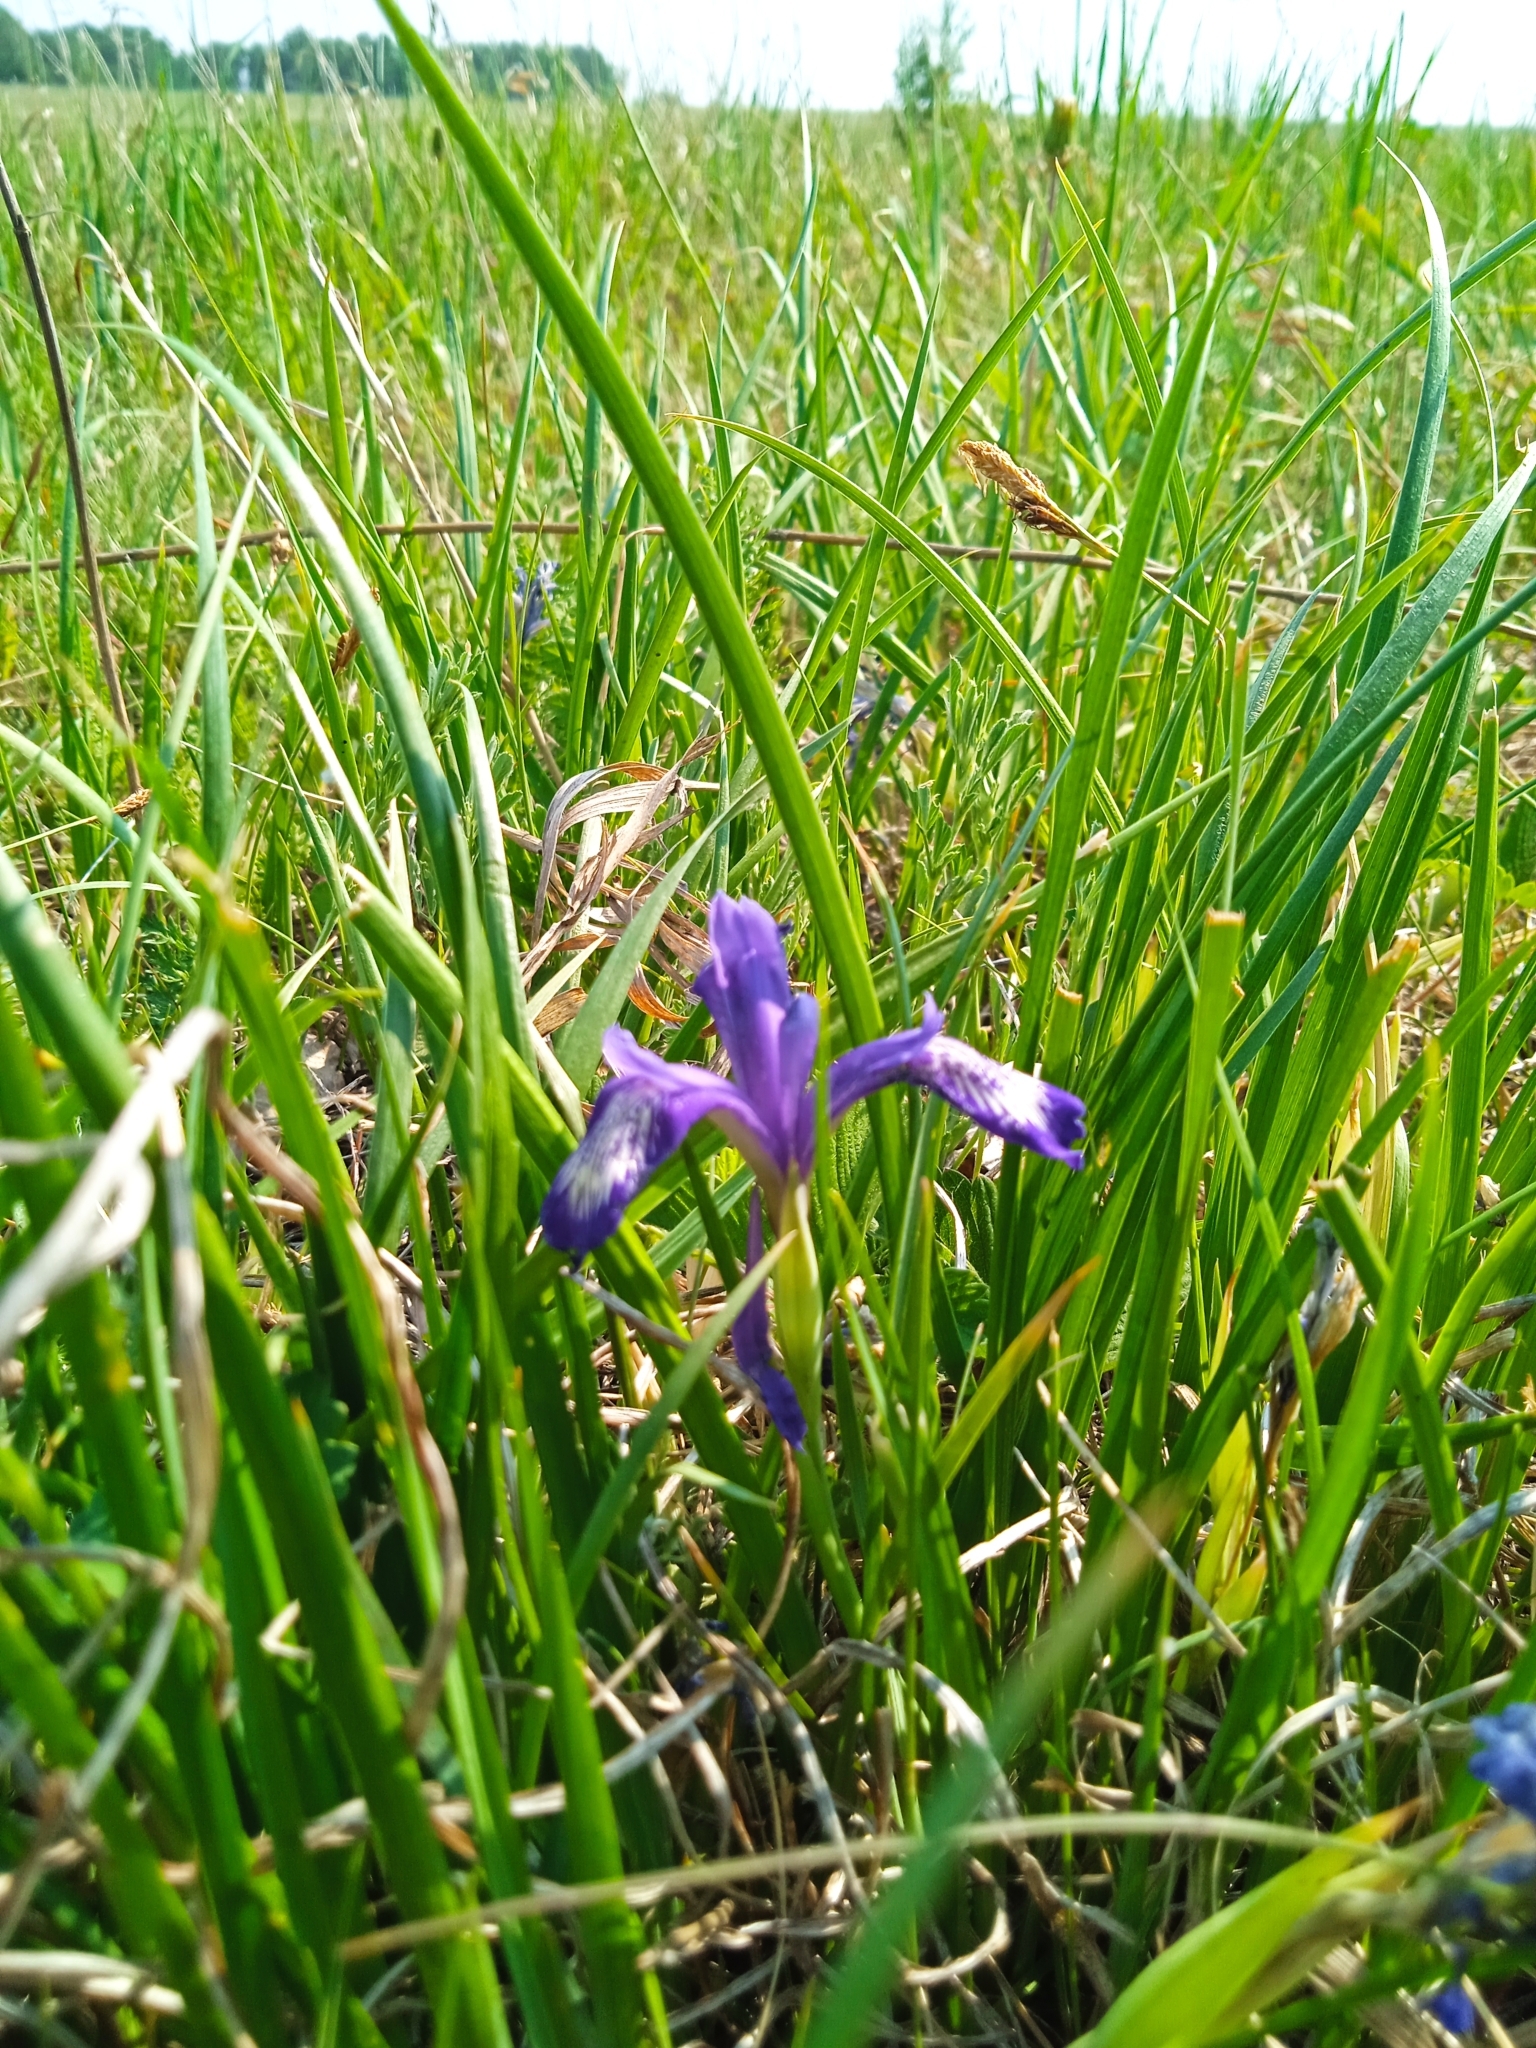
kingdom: Plantae
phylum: Tracheophyta
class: Liliopsida
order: Asparagales
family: Iridaceae
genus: Iris
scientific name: Iris ruthenica
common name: Purple-bract iris
